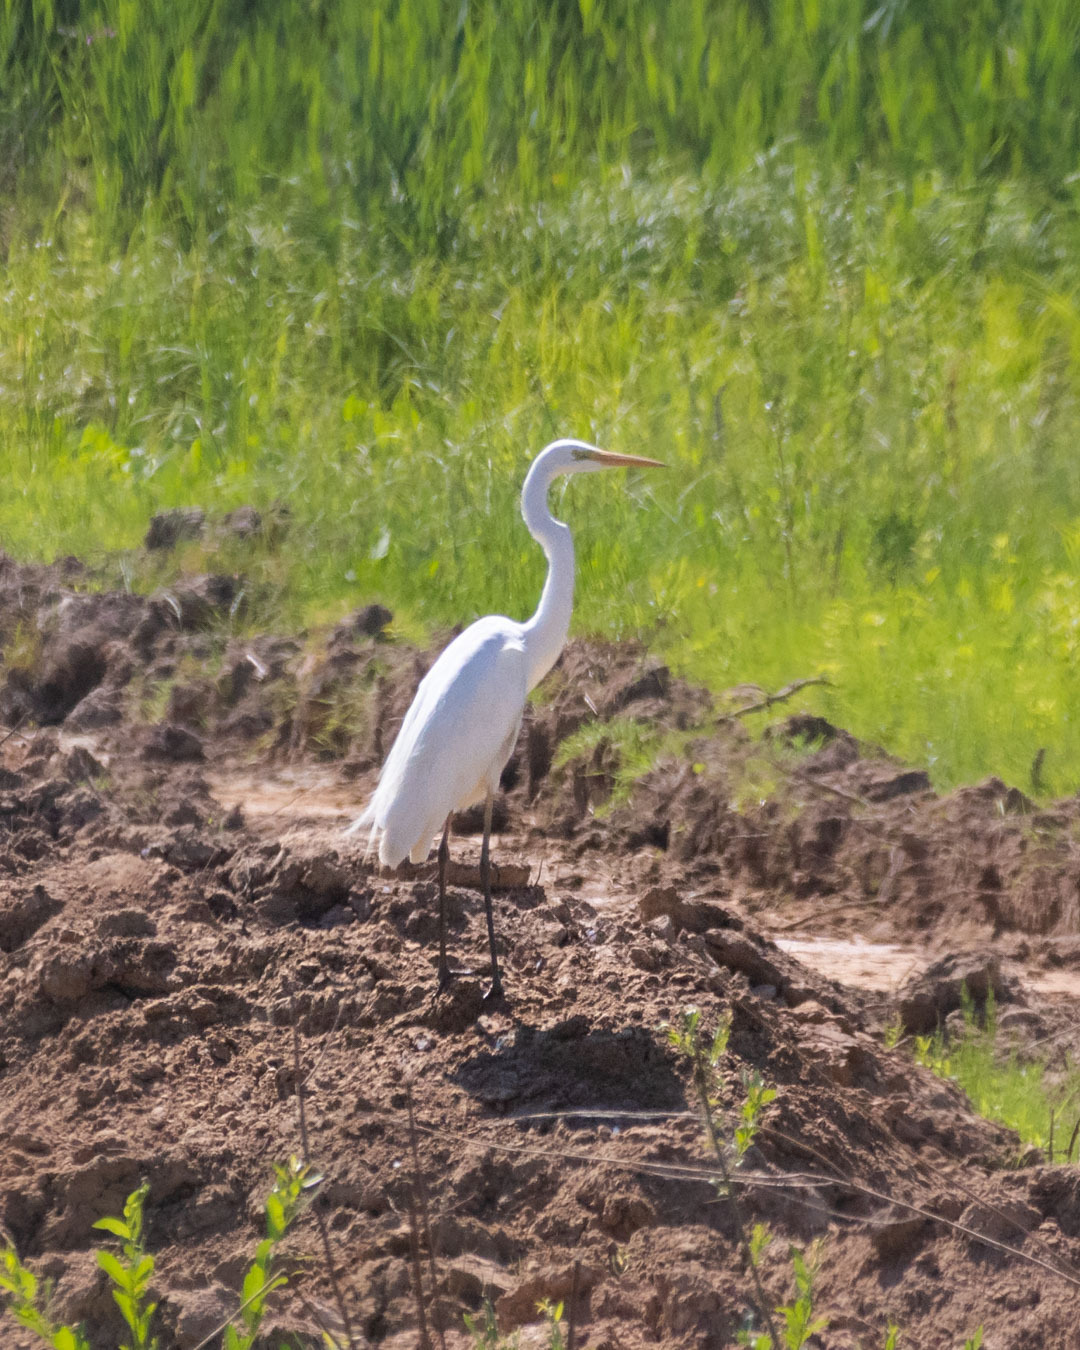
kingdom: Animalia
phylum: Chordata
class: Aves
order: Pelecaniformes
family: Ardeidae
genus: Ardea
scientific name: Ardea alba
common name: Great egret
